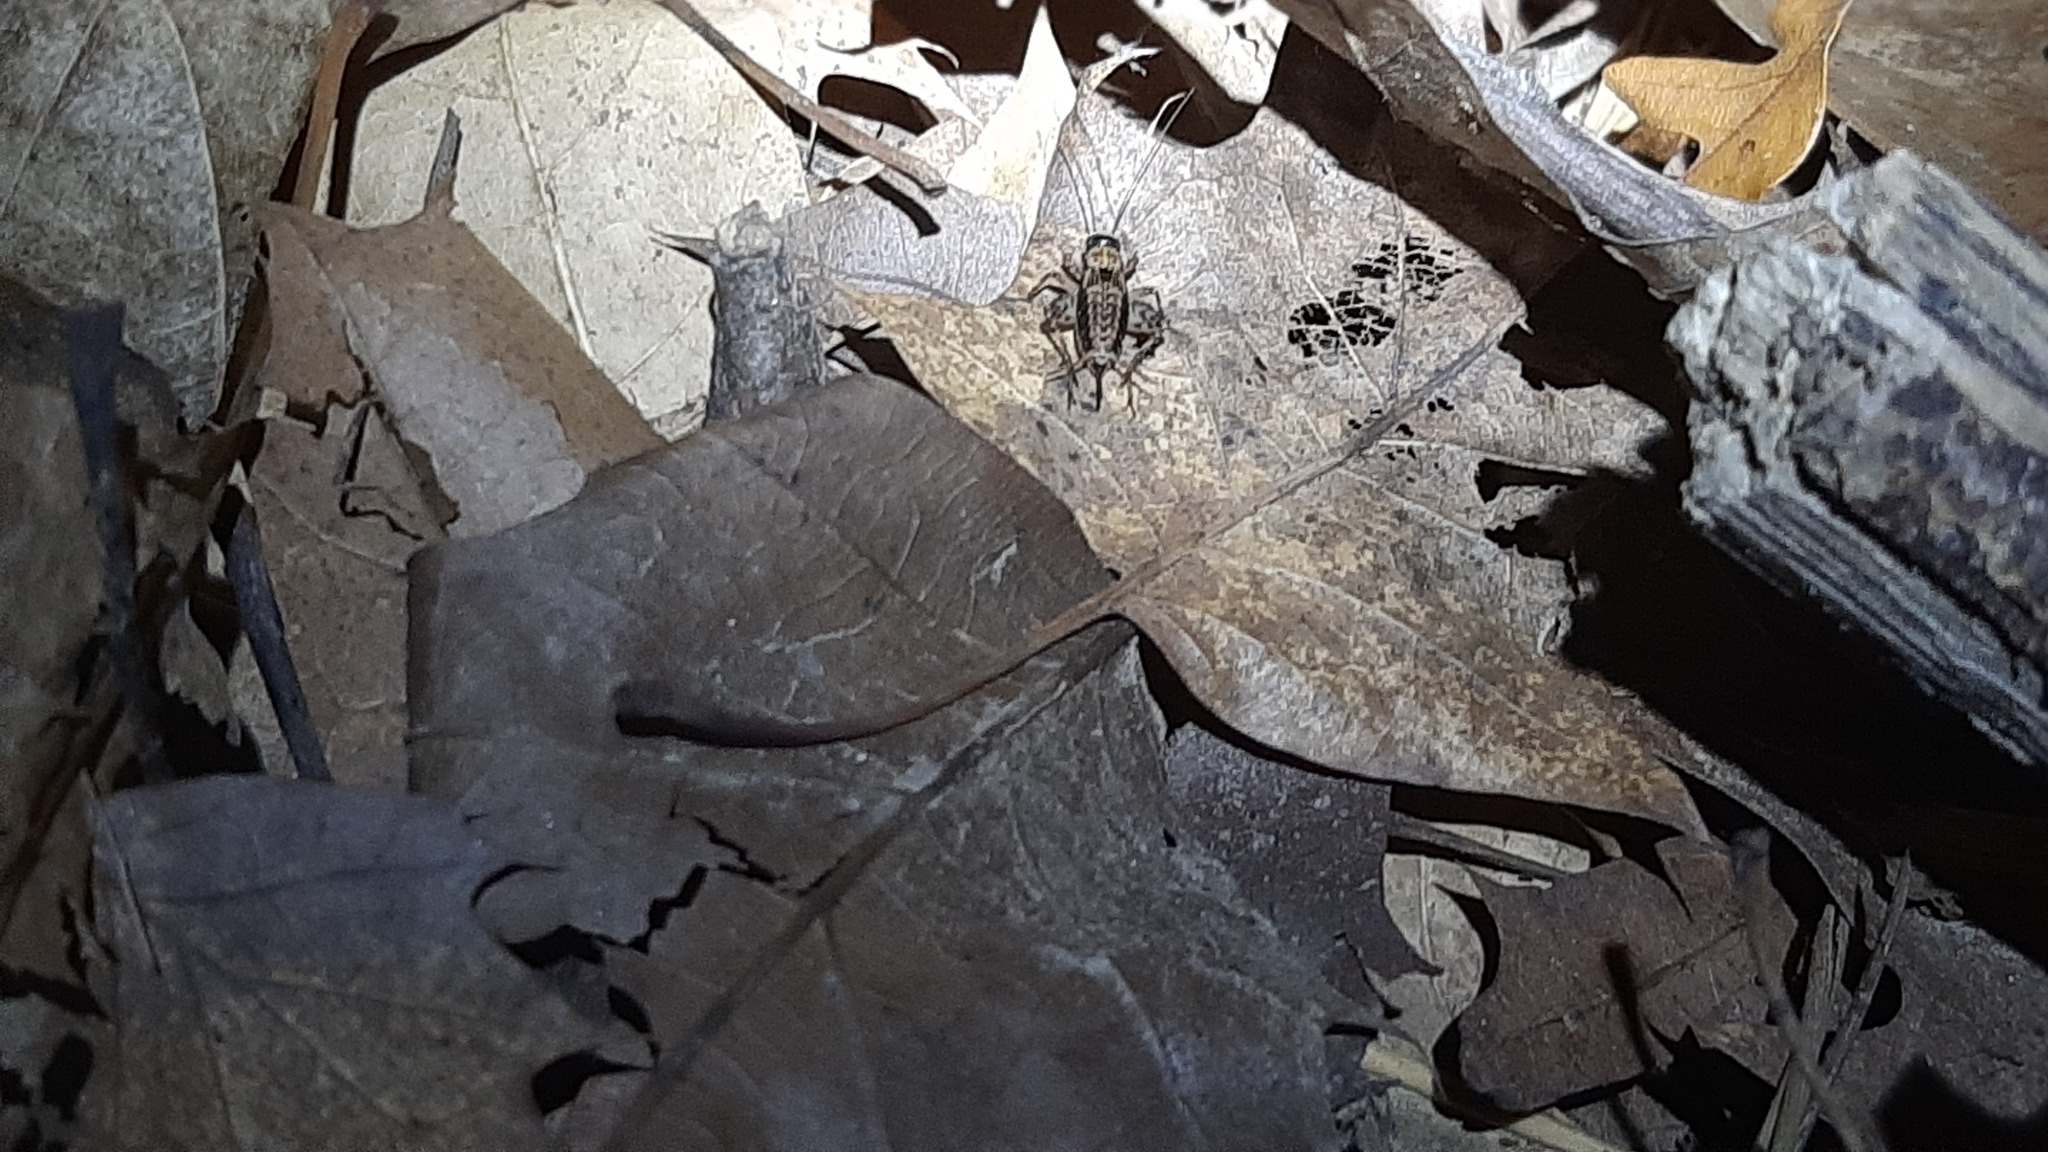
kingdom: Animalia
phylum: Arthropoda
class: Insecta
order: Orthoptera
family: Trigonidiidae
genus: Nemobius
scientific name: Nemobius sylvestris
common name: Wood-cricket
